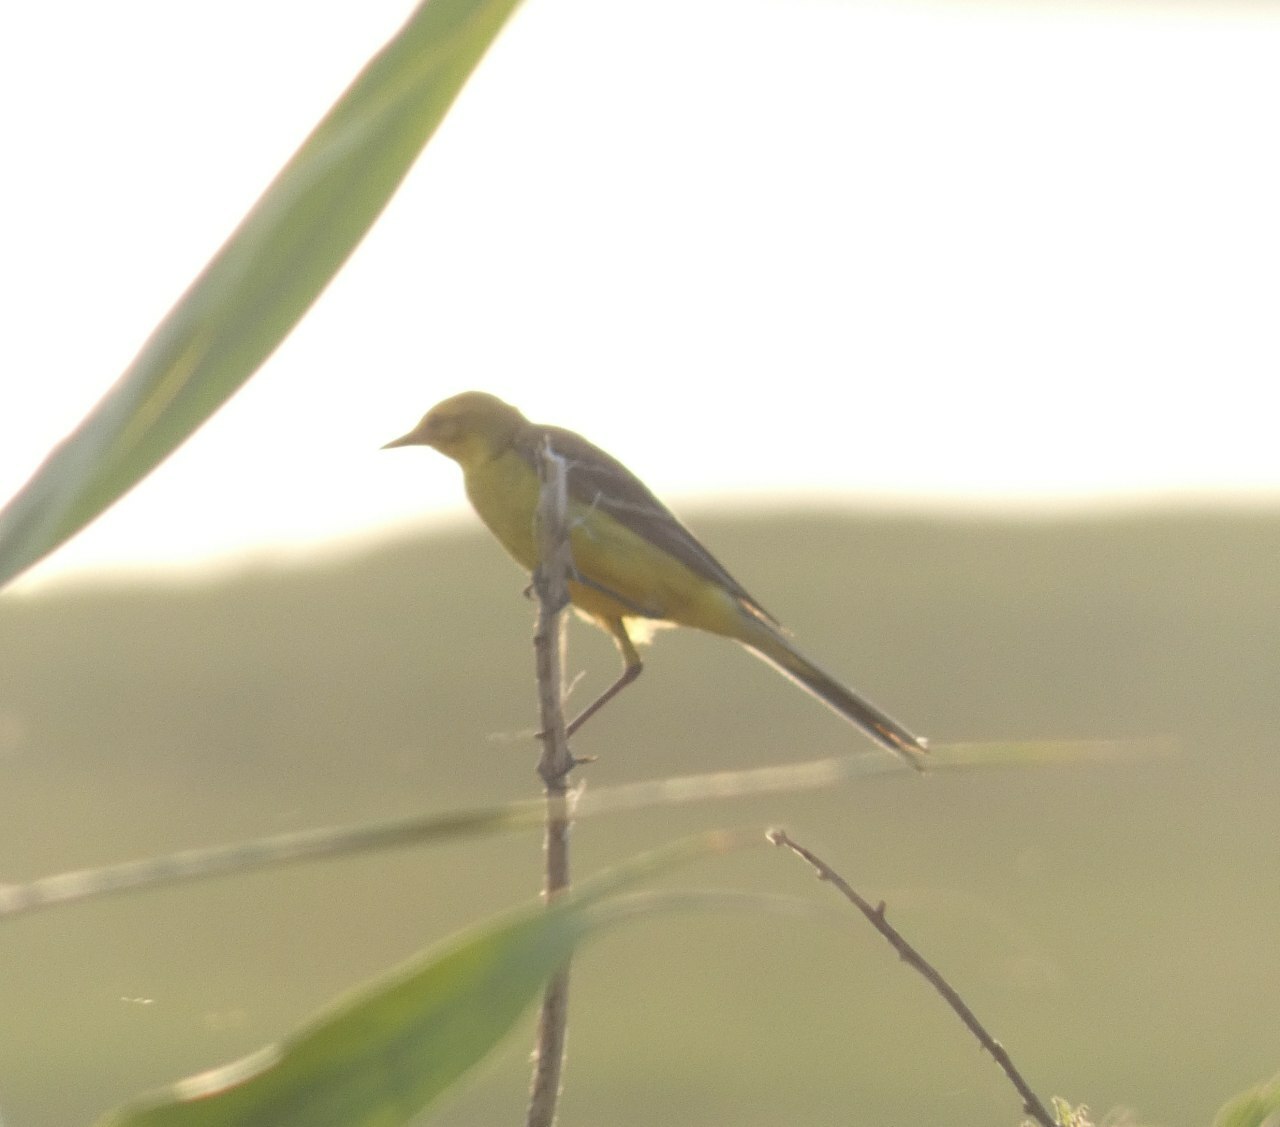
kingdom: Animalia
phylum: Chordata
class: Aves
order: Passeriformes
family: Motacillidae
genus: Motacilla
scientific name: Motacilla flava
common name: Western yellow wagtail
